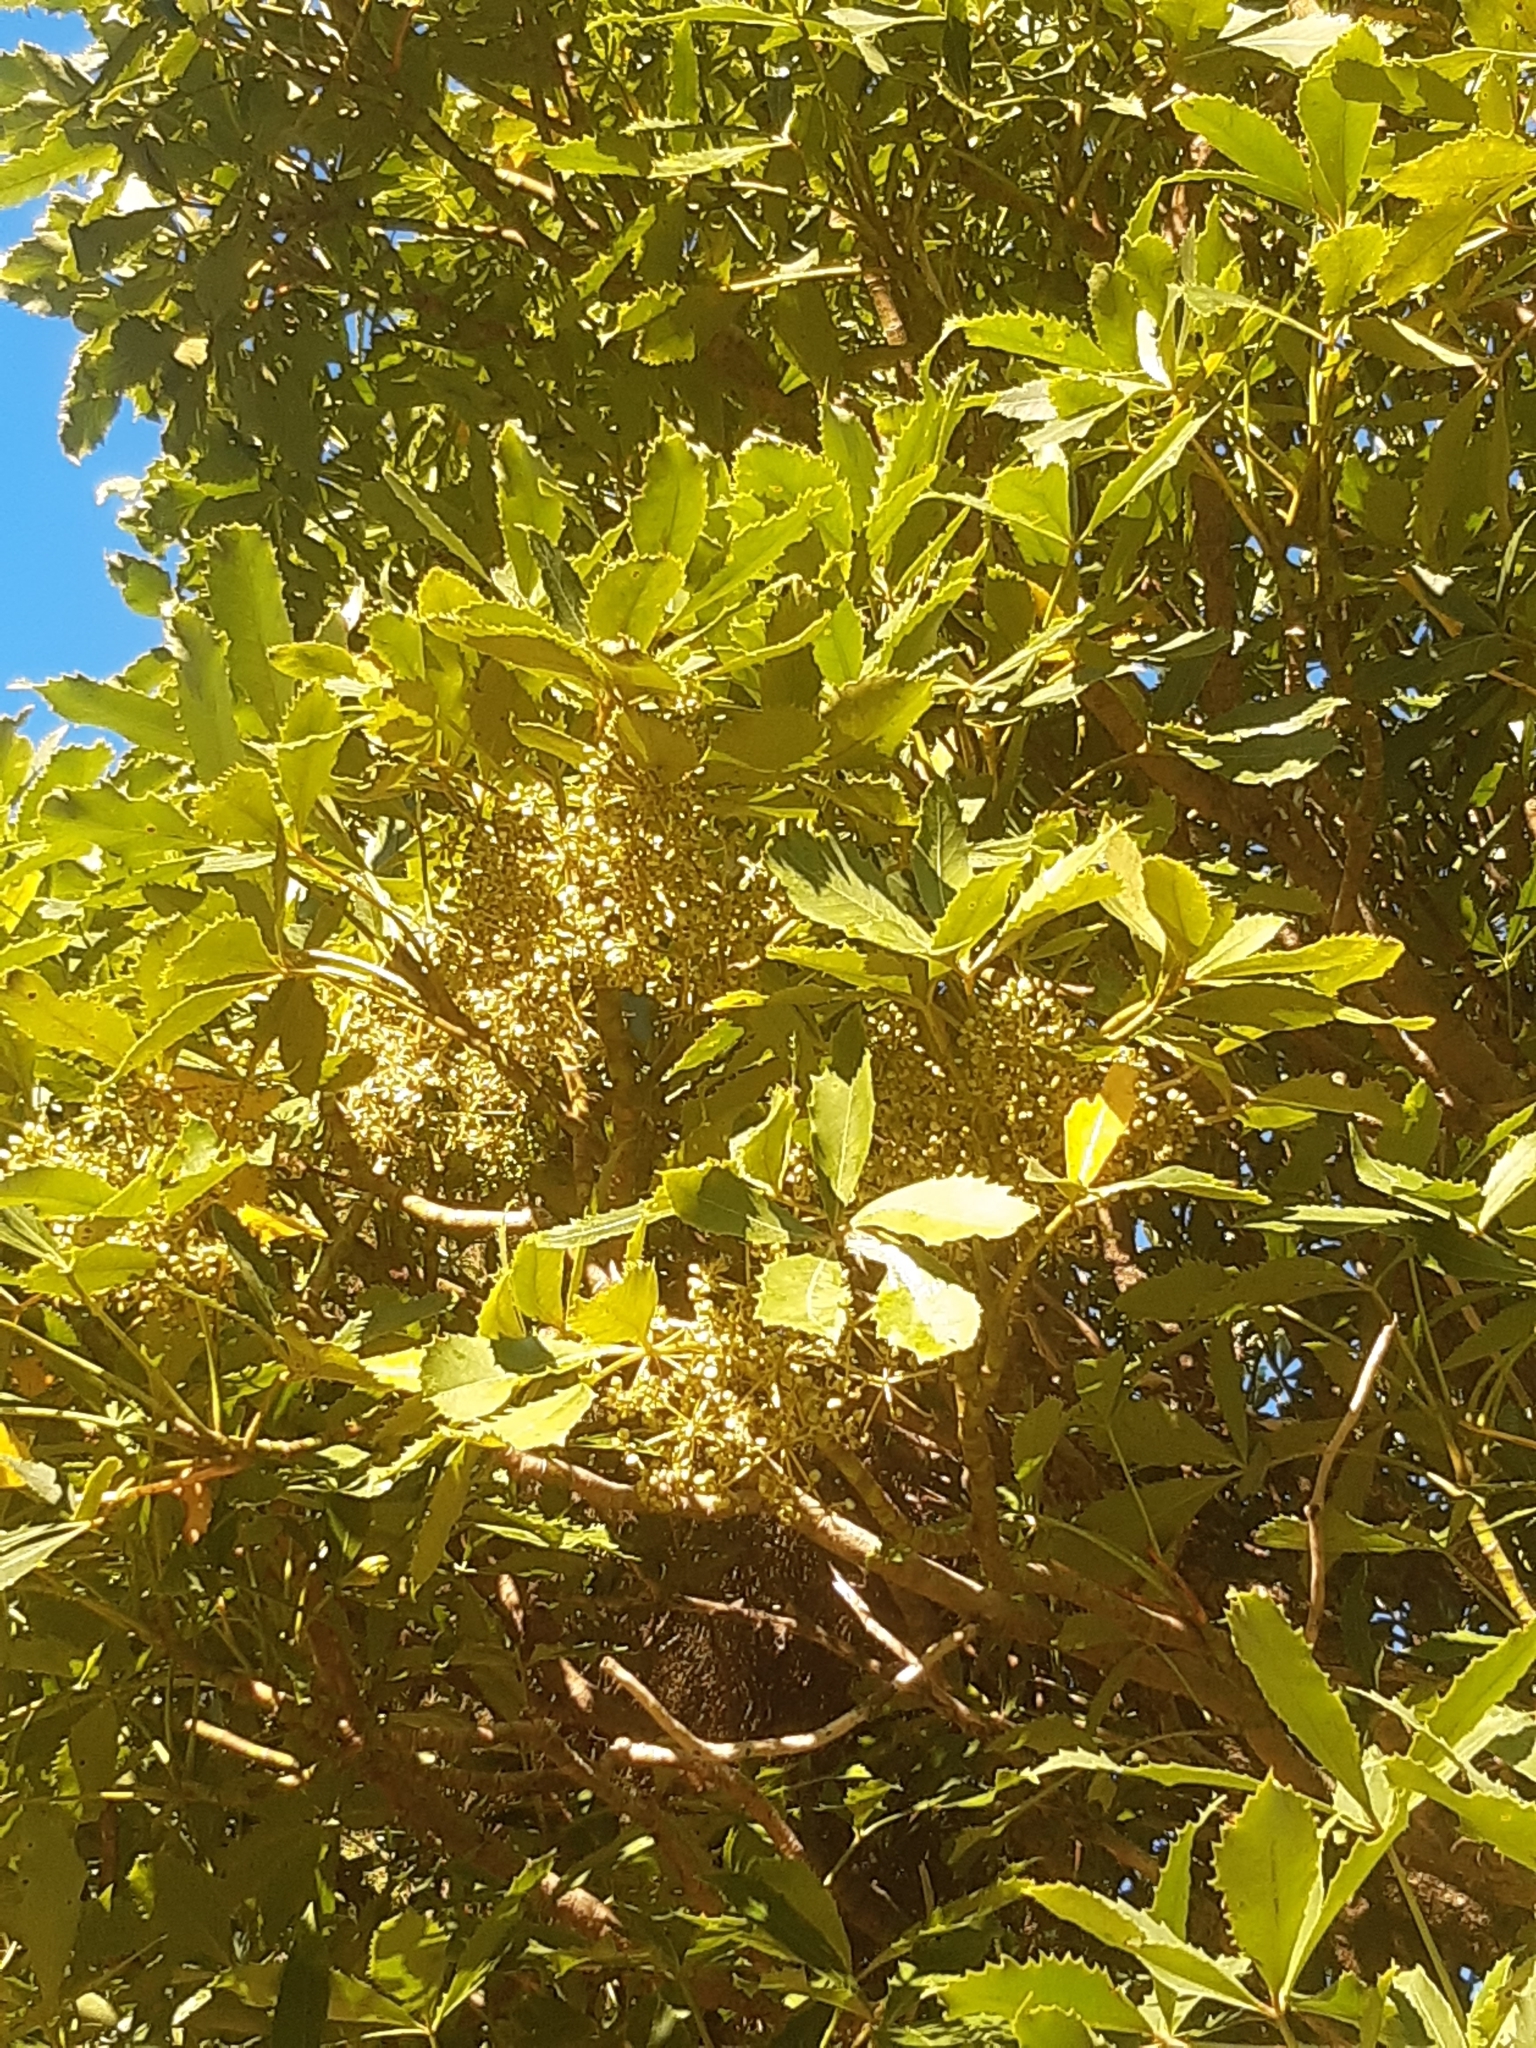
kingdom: Plantae
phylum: Tracheophyta
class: Magnoliopsida
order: Apiales
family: Araliaceae
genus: Neopanax
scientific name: Neopanax colensoi
